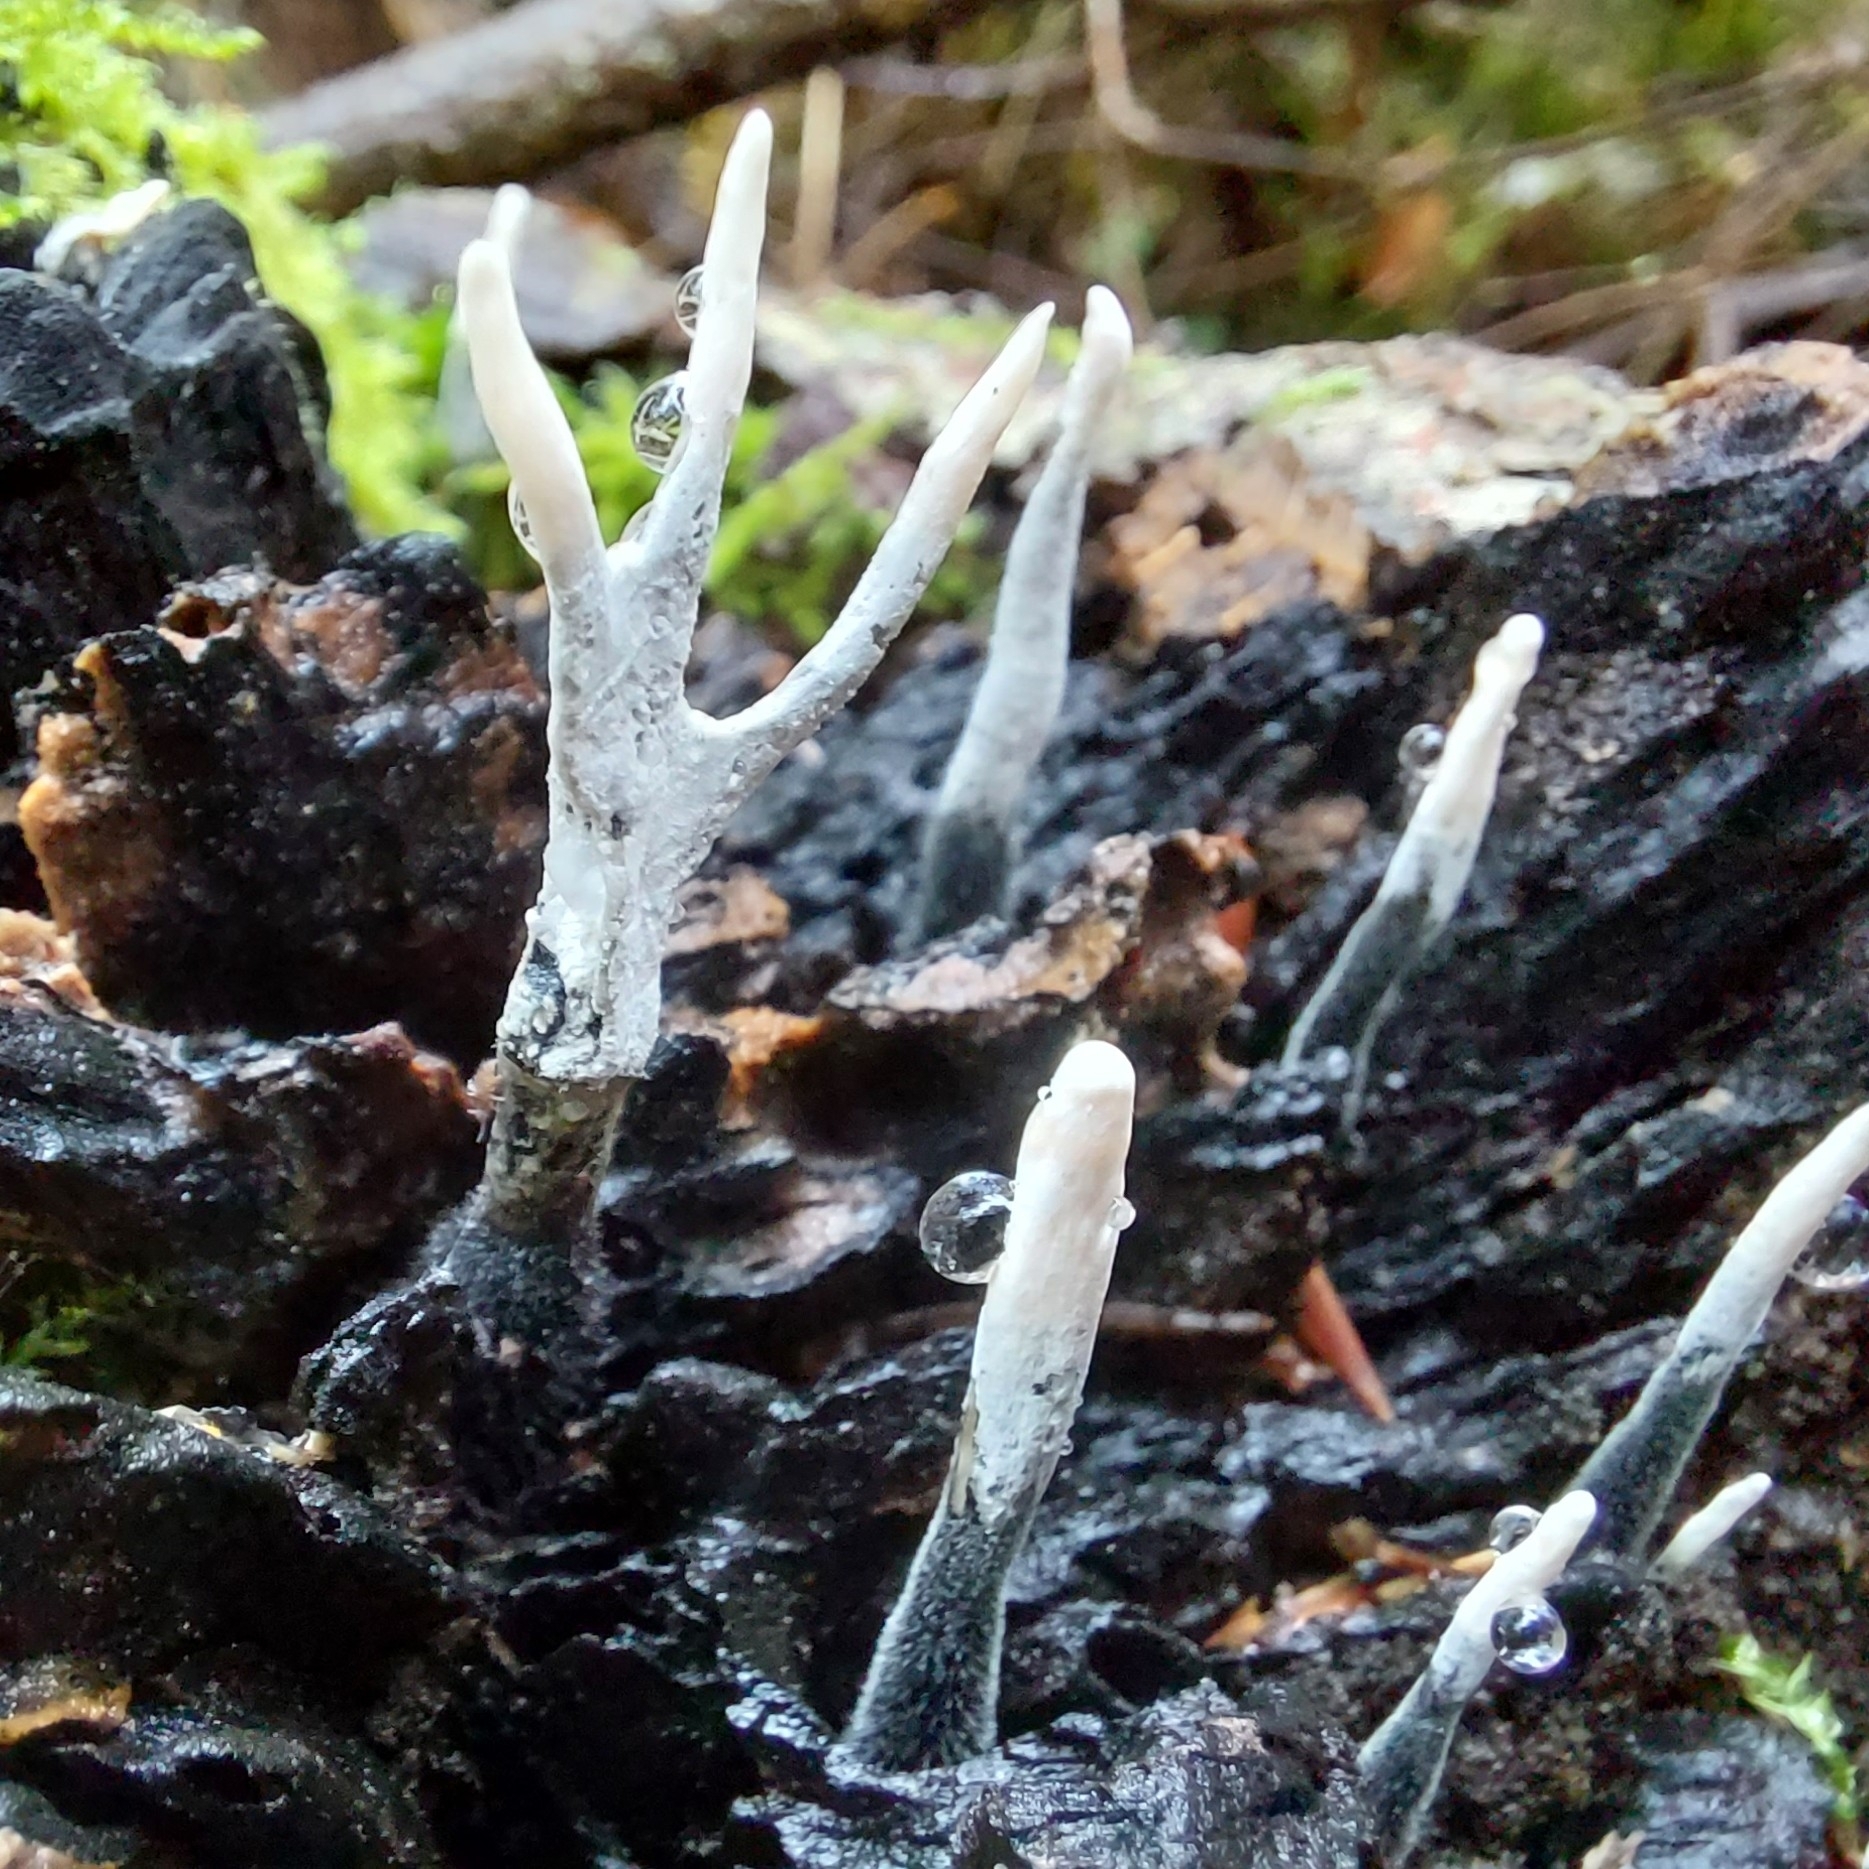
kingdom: Fungi
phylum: Ascomycota
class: Sordariomycetes
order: Xylariales
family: Xylariaceae
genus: Xylaria
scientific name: Xylaria hypoxylon
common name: Candle-snuff fungus
